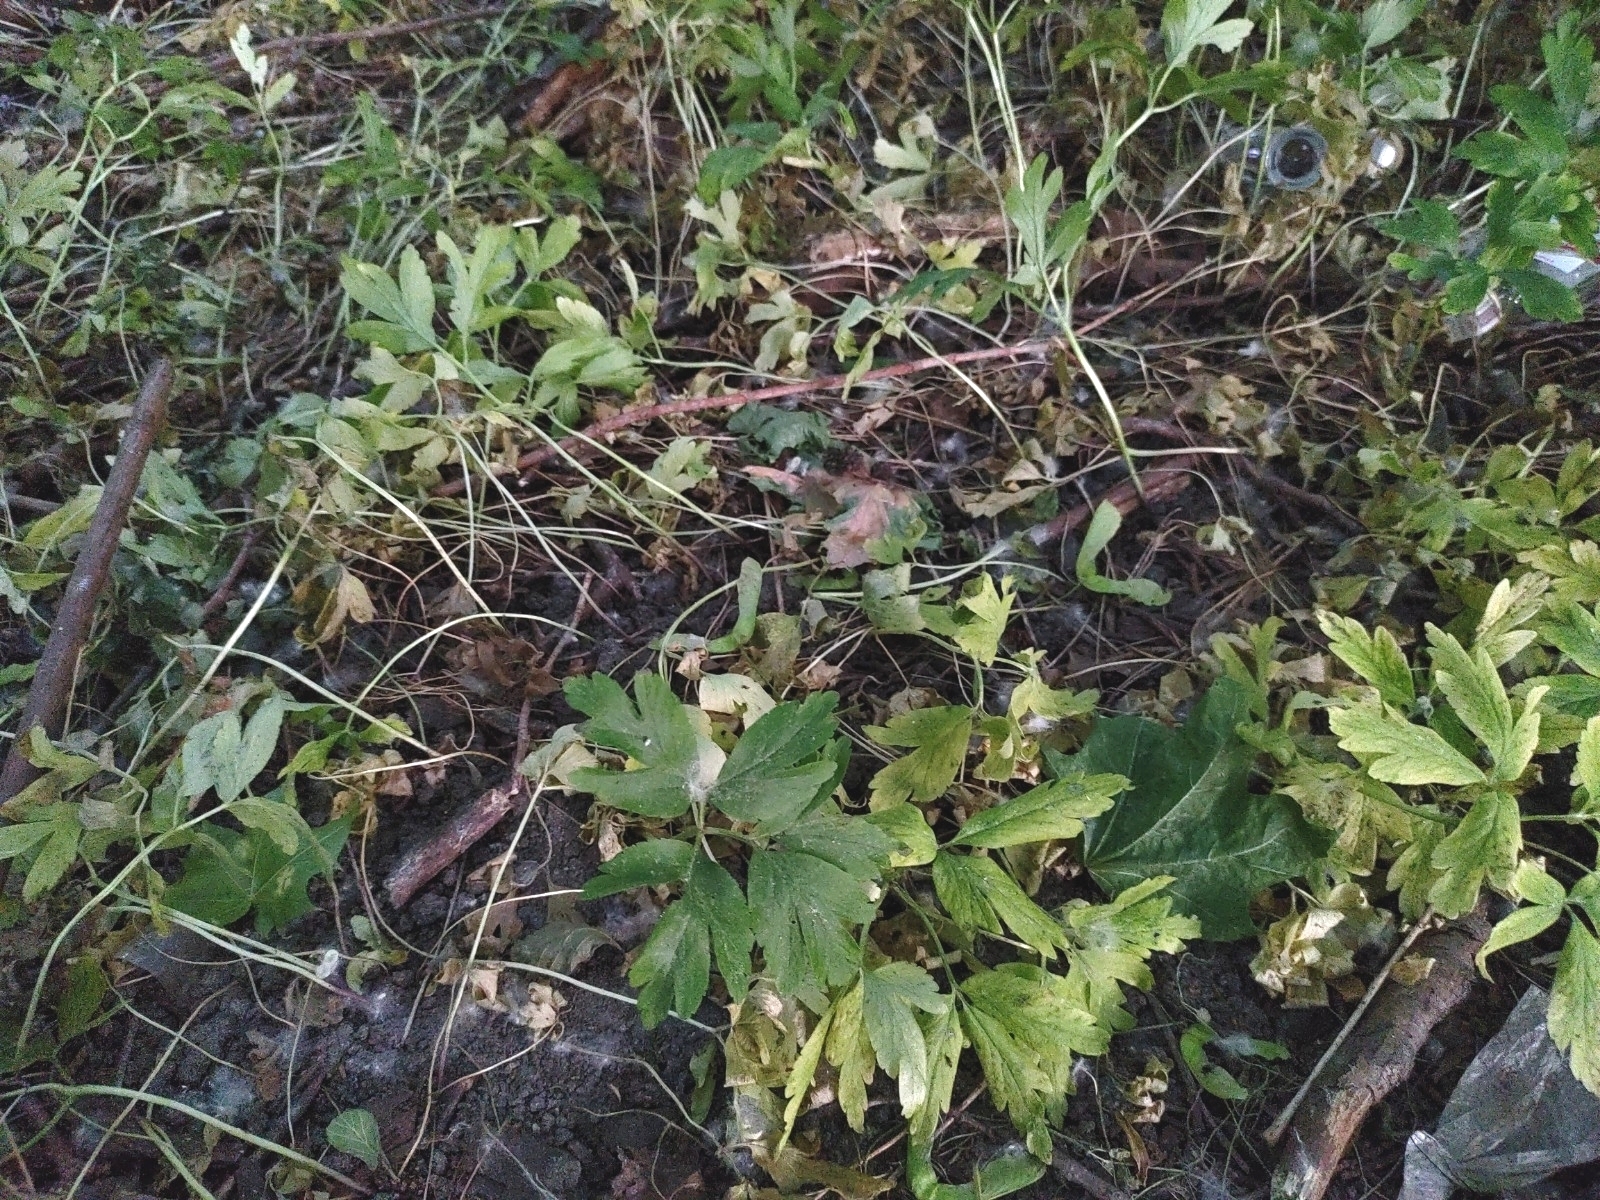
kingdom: Plantae
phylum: Tracheophyta
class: Magnoliopsida
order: Ranunculales
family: Ranunculaceae
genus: Anemone
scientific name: Anemone nemorosa
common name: Wood anemone
